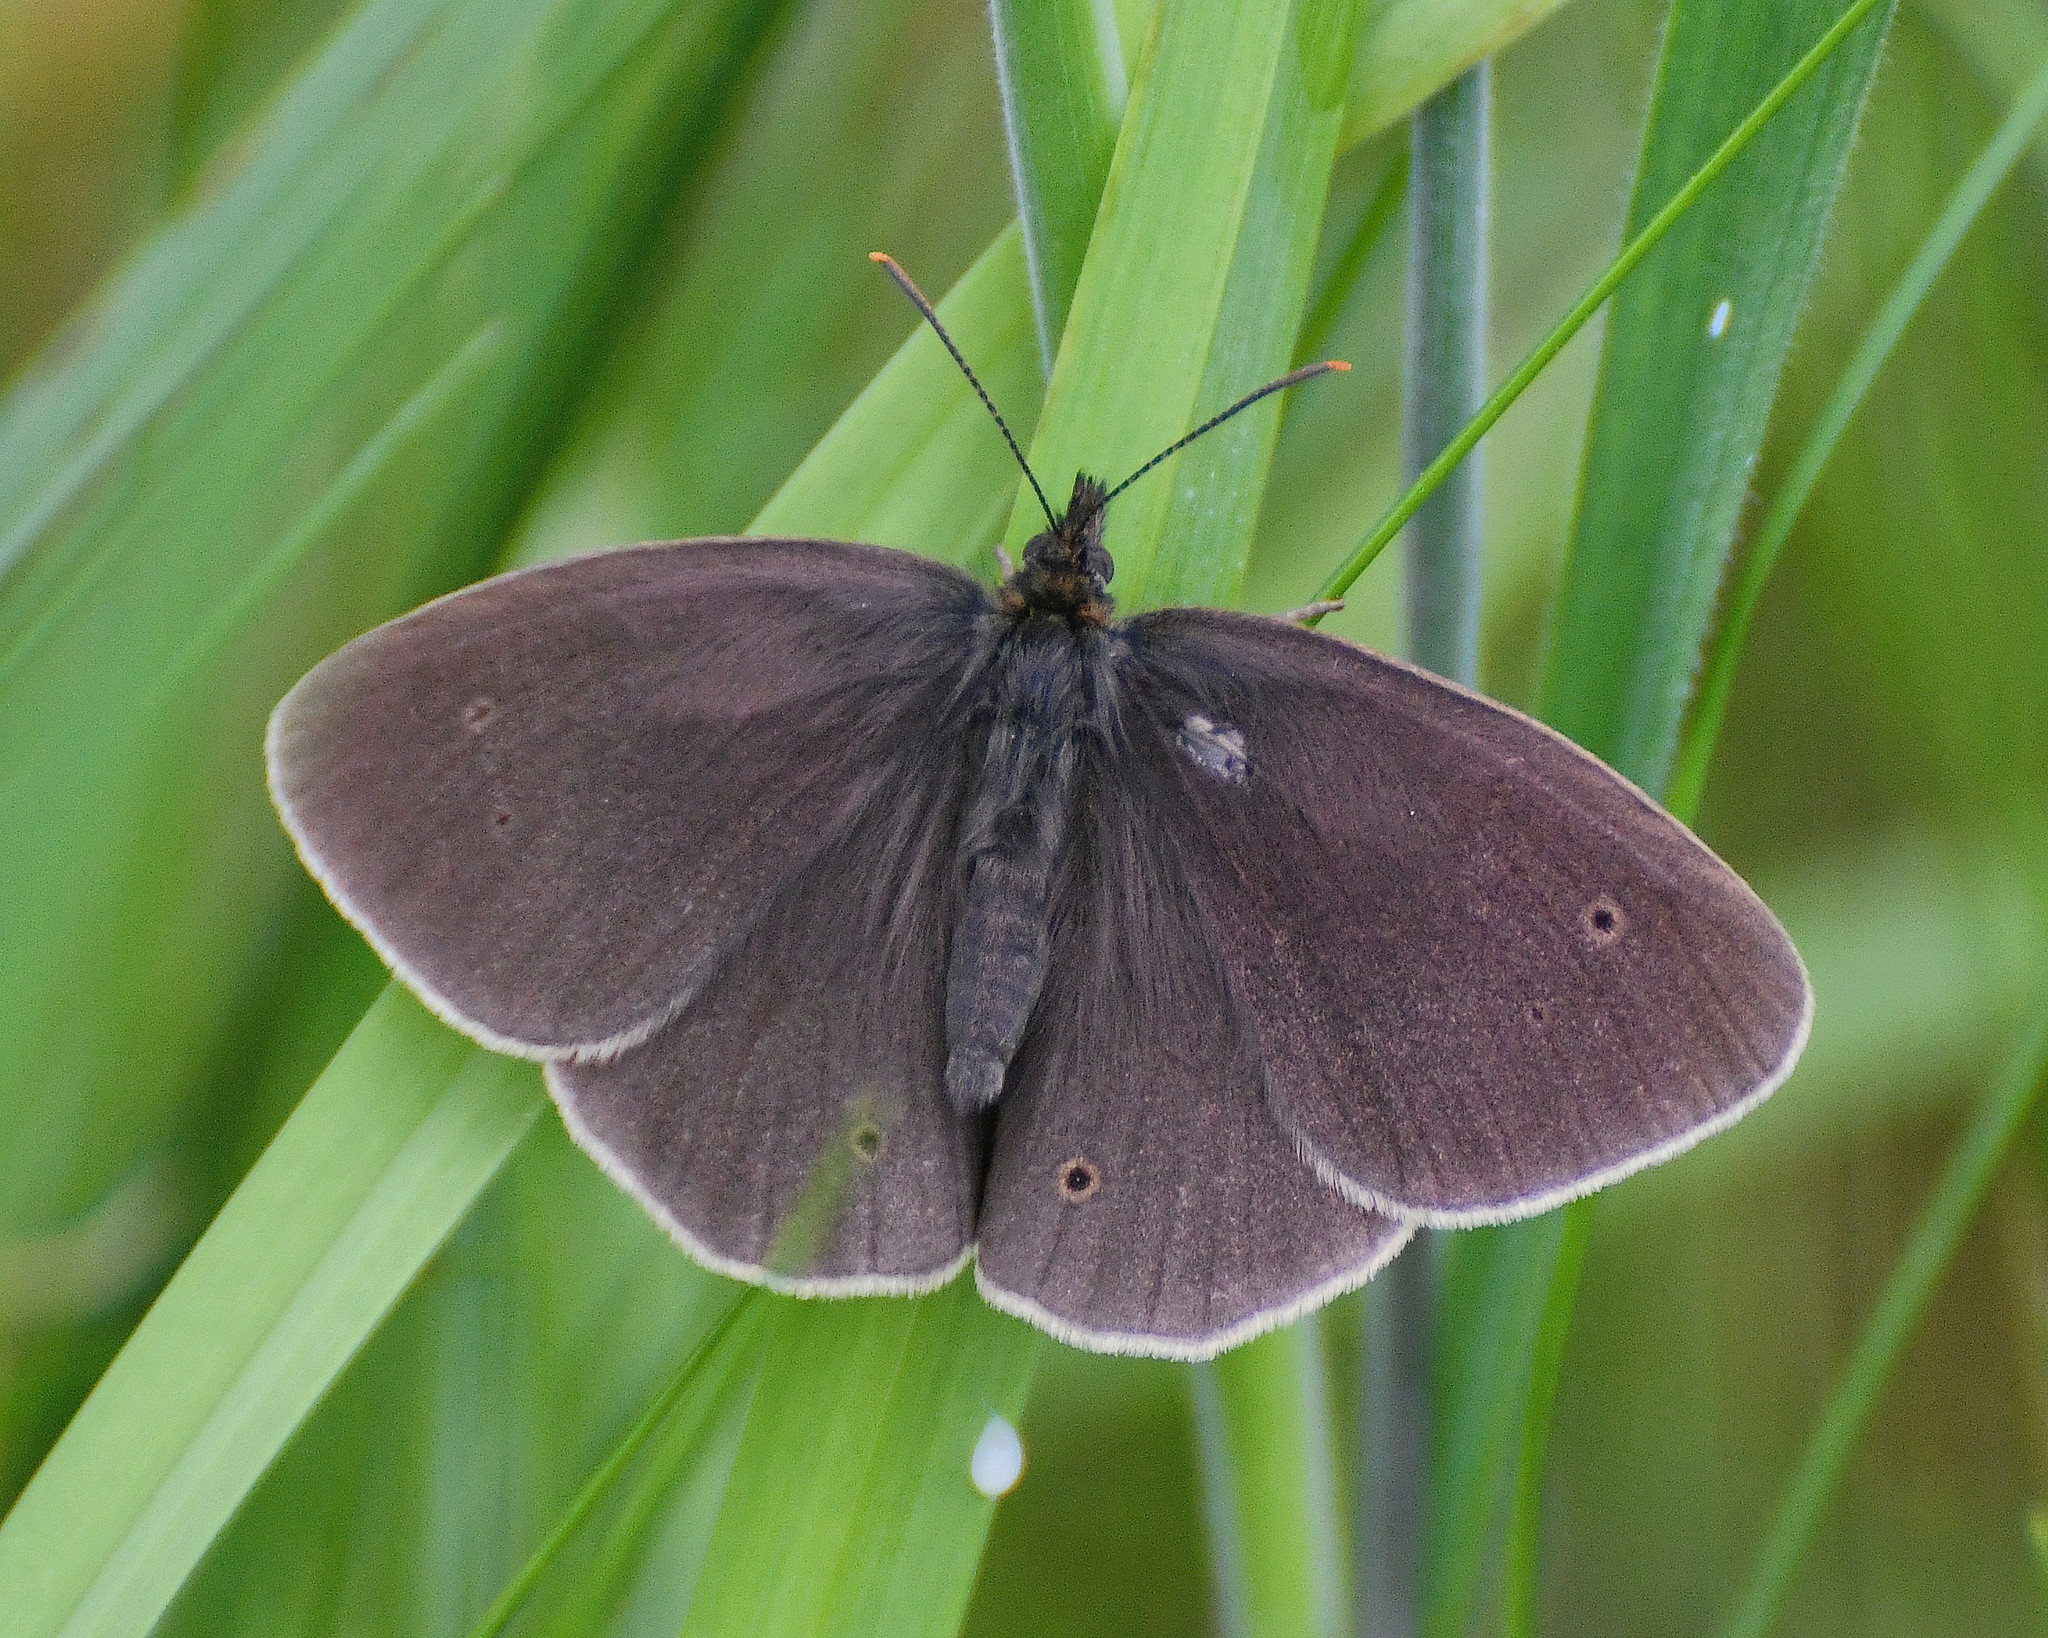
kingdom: Animalia
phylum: Arthropoda
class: Insecta
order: Lepidoptera
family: Nymphalidae
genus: Aphantopus
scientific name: Aphantopus hyperantus
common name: Ringlet
